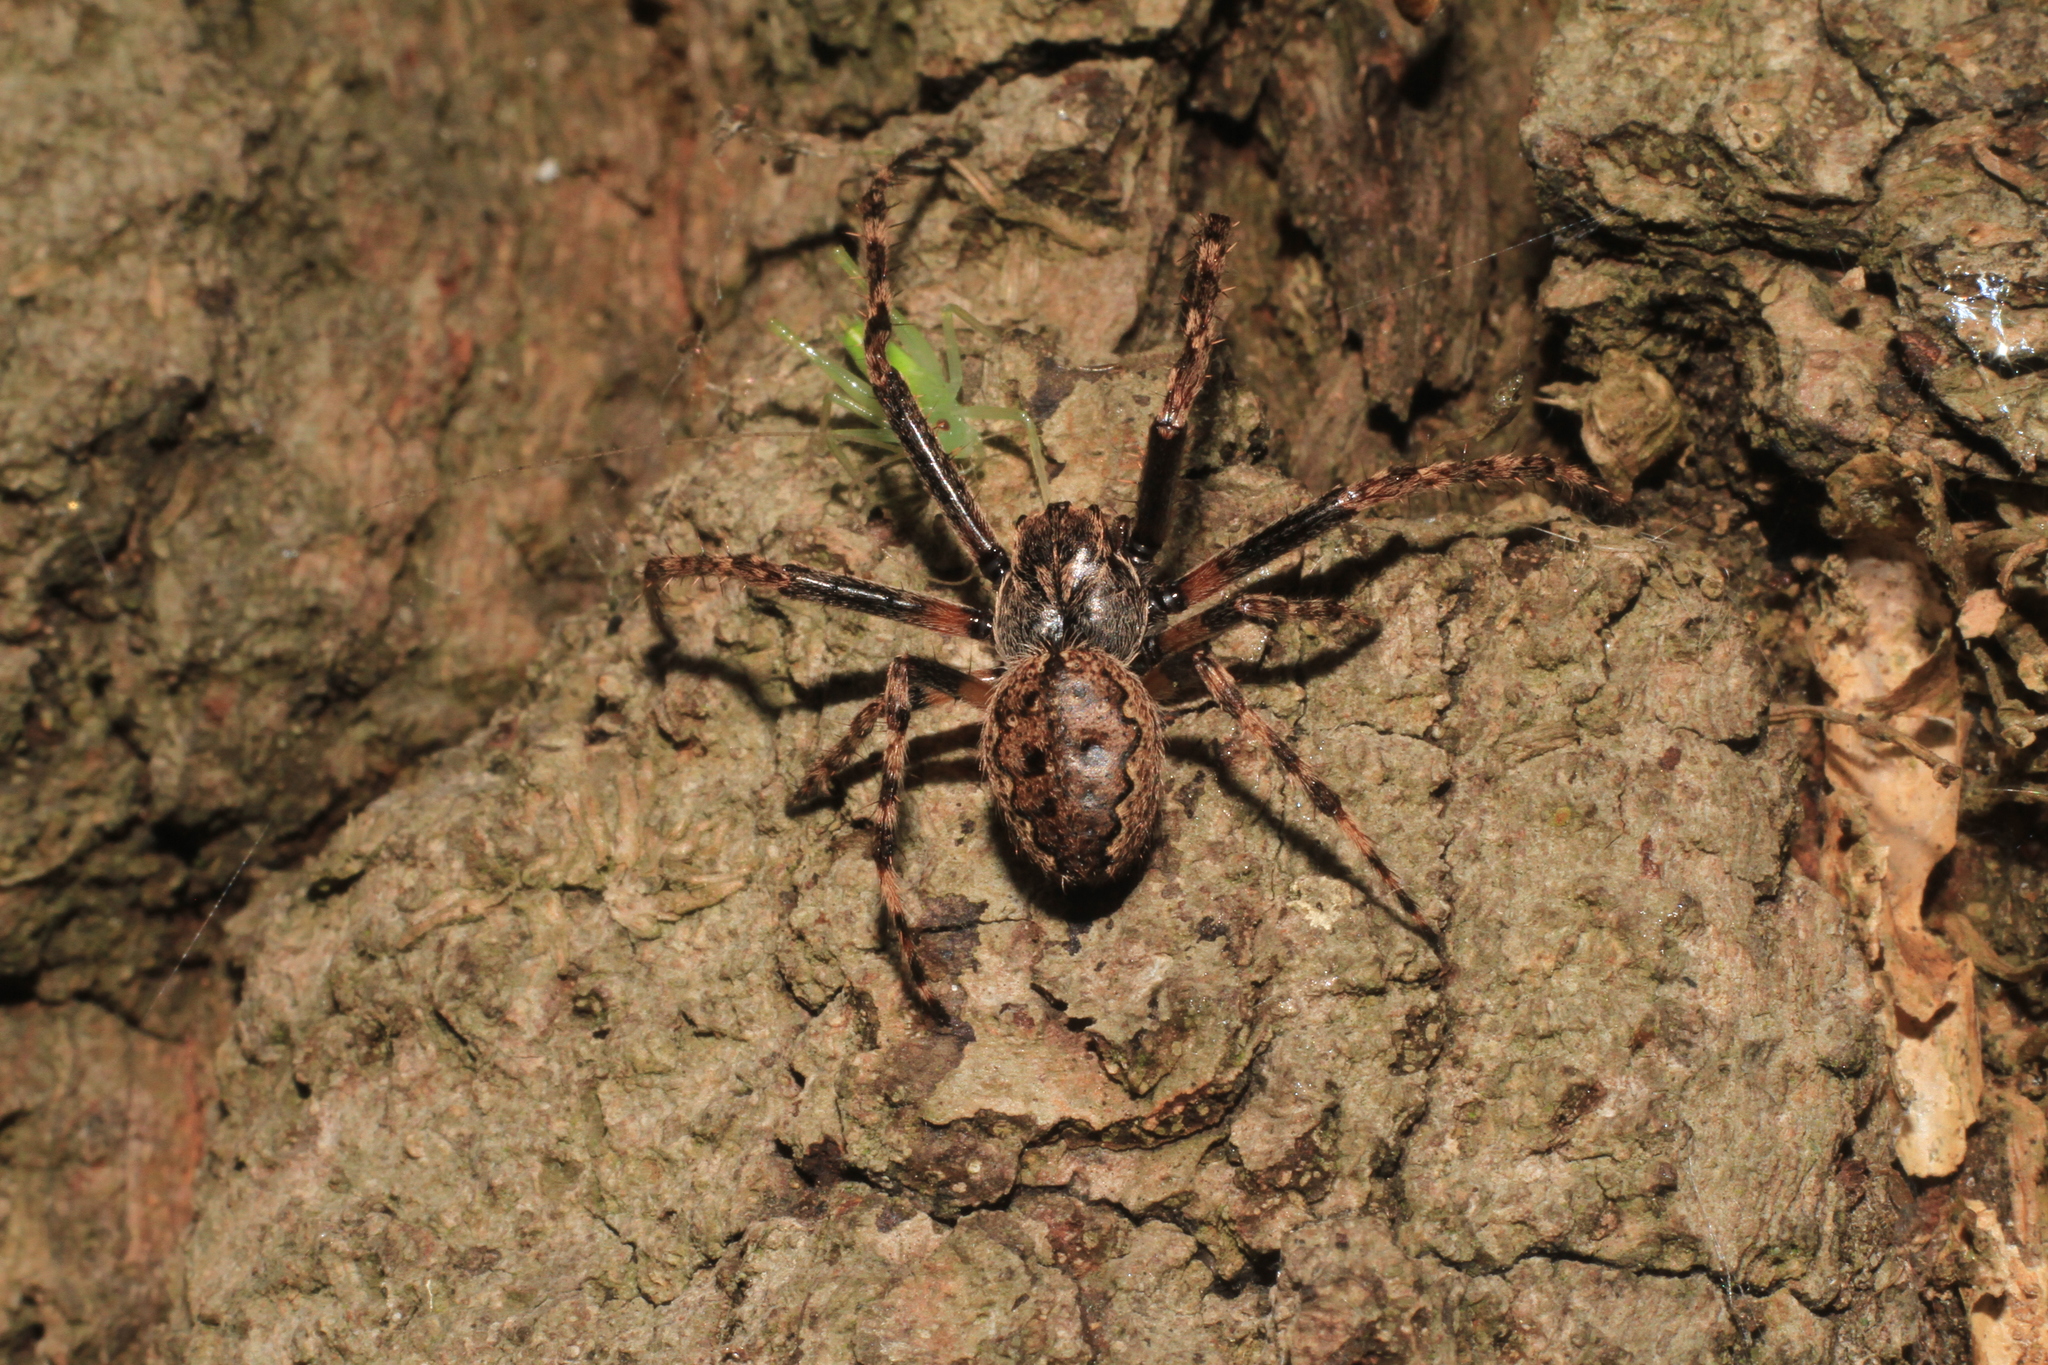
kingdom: Animalia
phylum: Arthropoda
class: Arachnida
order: Araneae
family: Araneidae
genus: Nuctenea
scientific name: Nuctenea umbratica
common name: Toad spider
